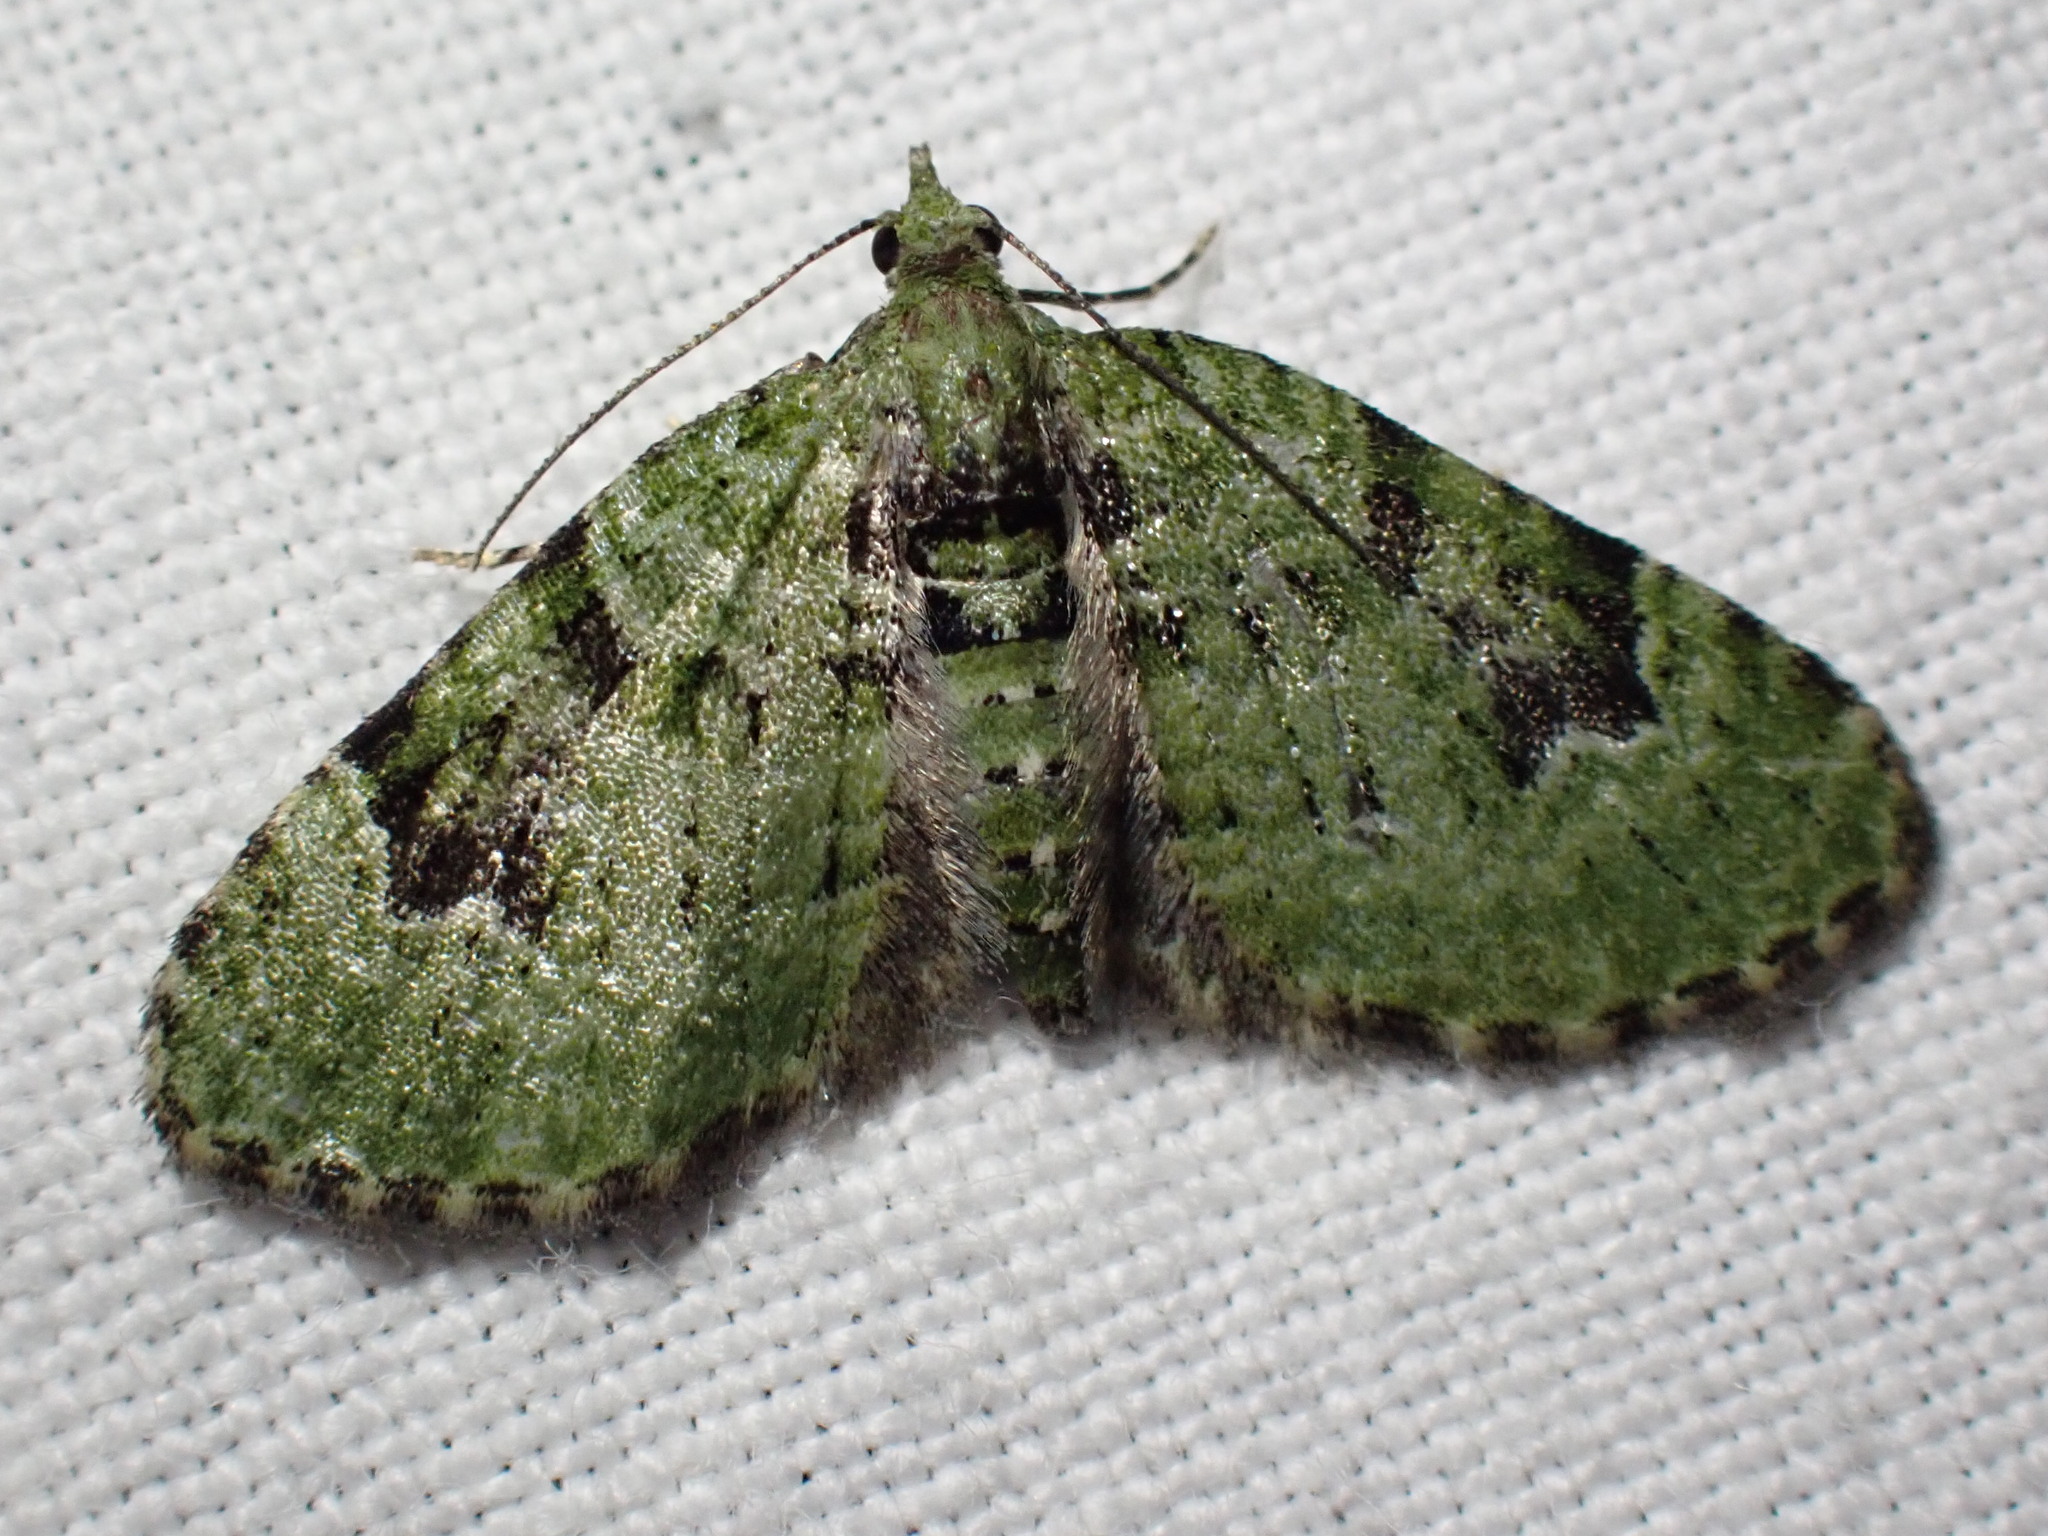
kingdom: Animalia
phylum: Arthropoda
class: Insecta
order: Lepidoptera
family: Geometridae
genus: Chloroclystis
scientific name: Chloroclystis v-ata
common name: V-pug
